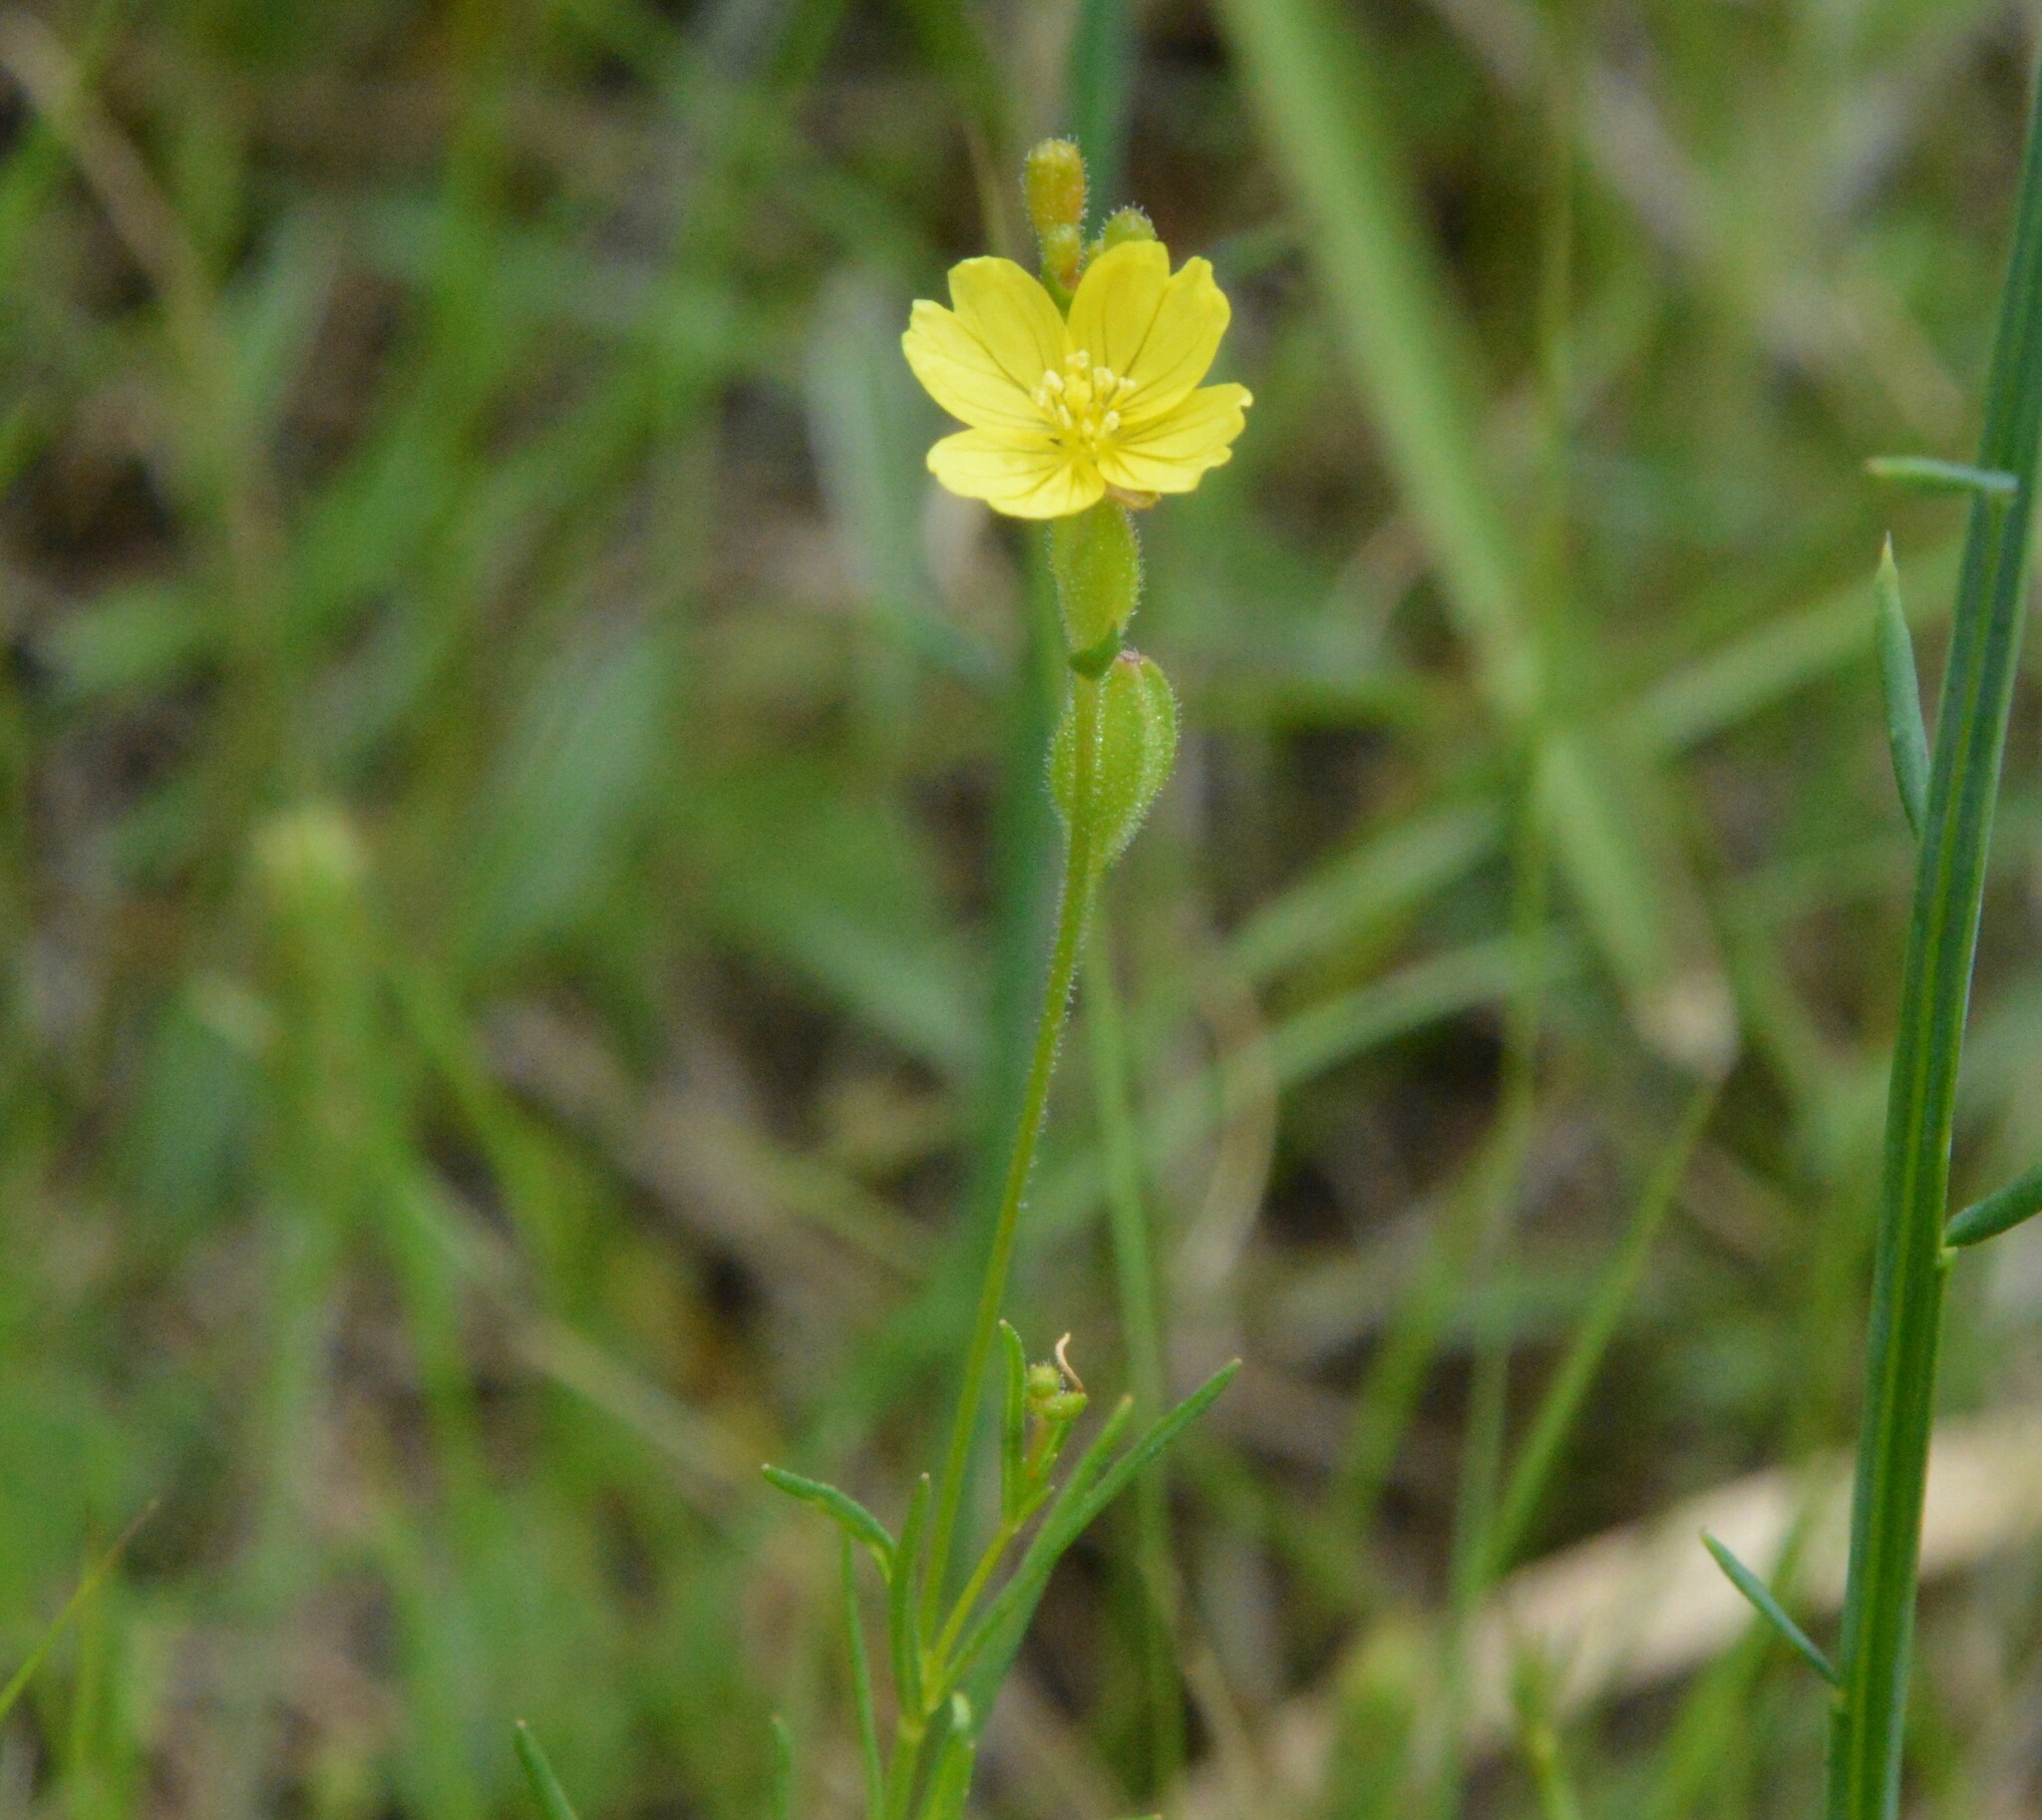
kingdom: Plantae
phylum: Tracheophyta
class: Magnoliopsida
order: Myrtales
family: Onagraceae
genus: Oenothera
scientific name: Oenothera linifolia
